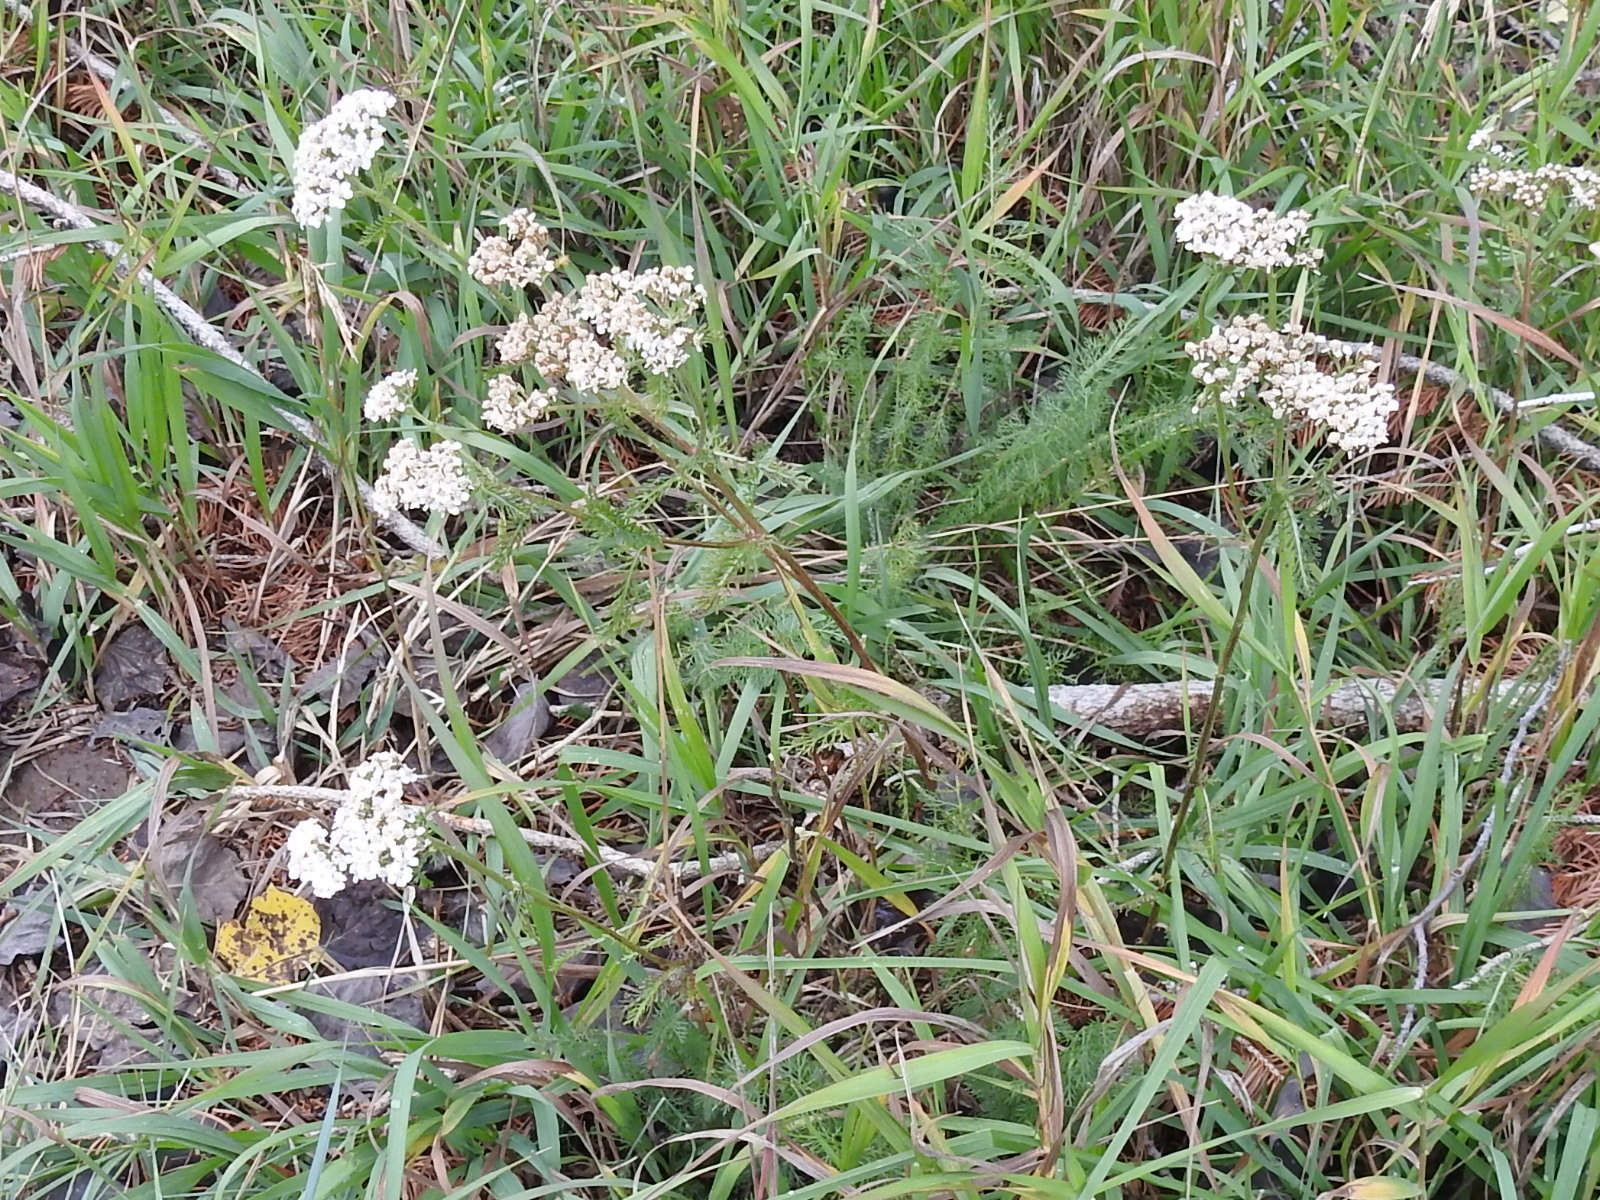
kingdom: Plantae
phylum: Tracheophyta
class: Magnoliopsida
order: Asterales
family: Asteraceae
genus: Achillea
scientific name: Achillea millefolium
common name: Yarrow
